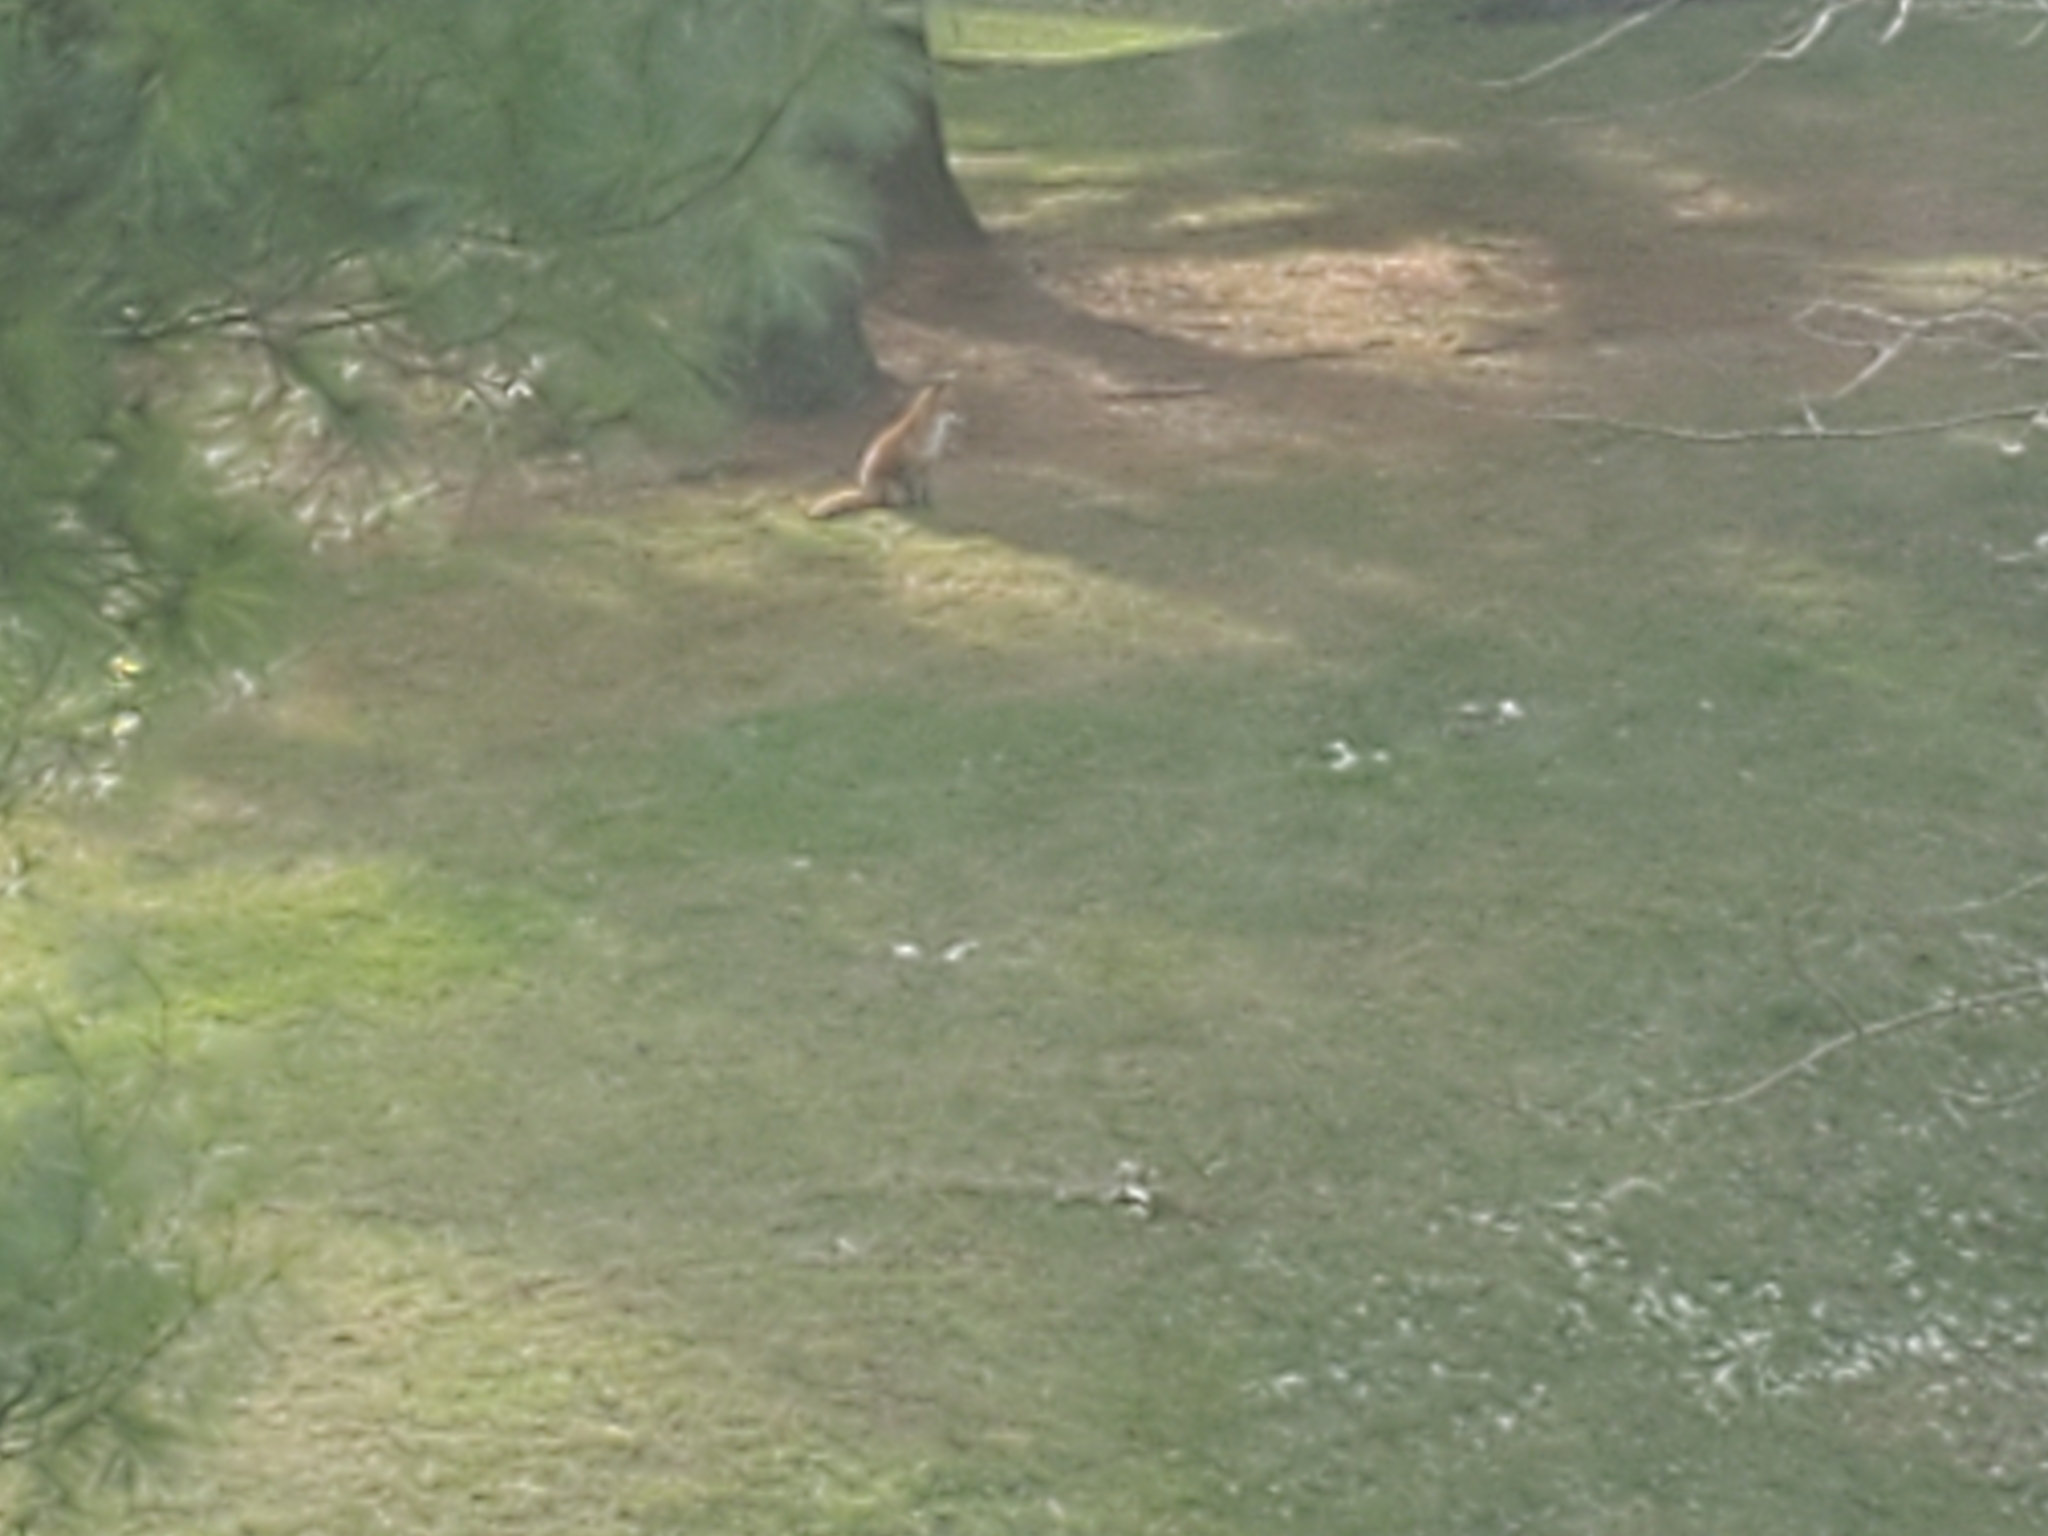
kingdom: Animalia
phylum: Chordata
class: Mammalia
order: Carnivora
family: Canidae
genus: Vulpes
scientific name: Vulpes vulpes
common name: Red fox
